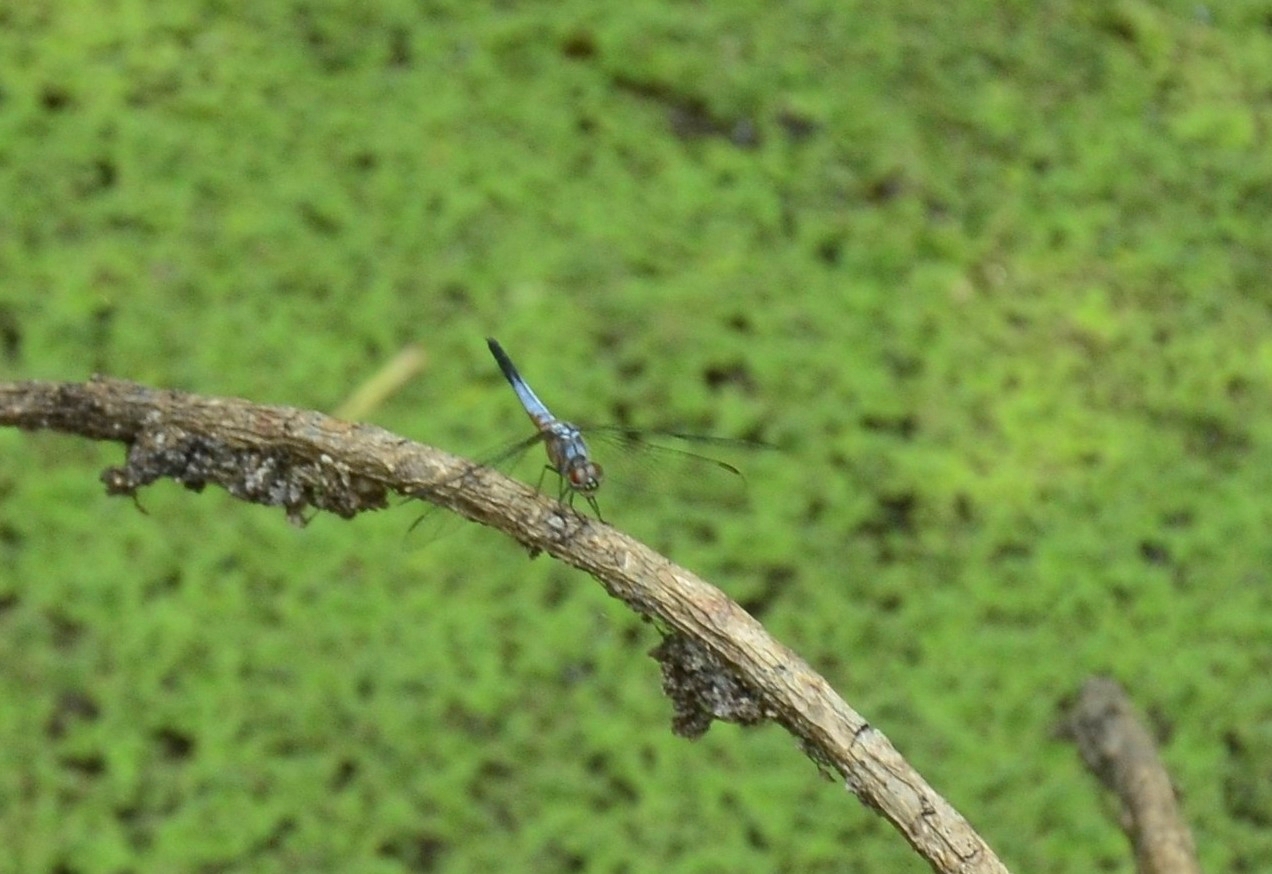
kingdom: Animalia
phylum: Arthropoda
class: Insecta
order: Odonata
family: Libellulidae
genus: Brachydiplax
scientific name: Brachydiplax chalybea
